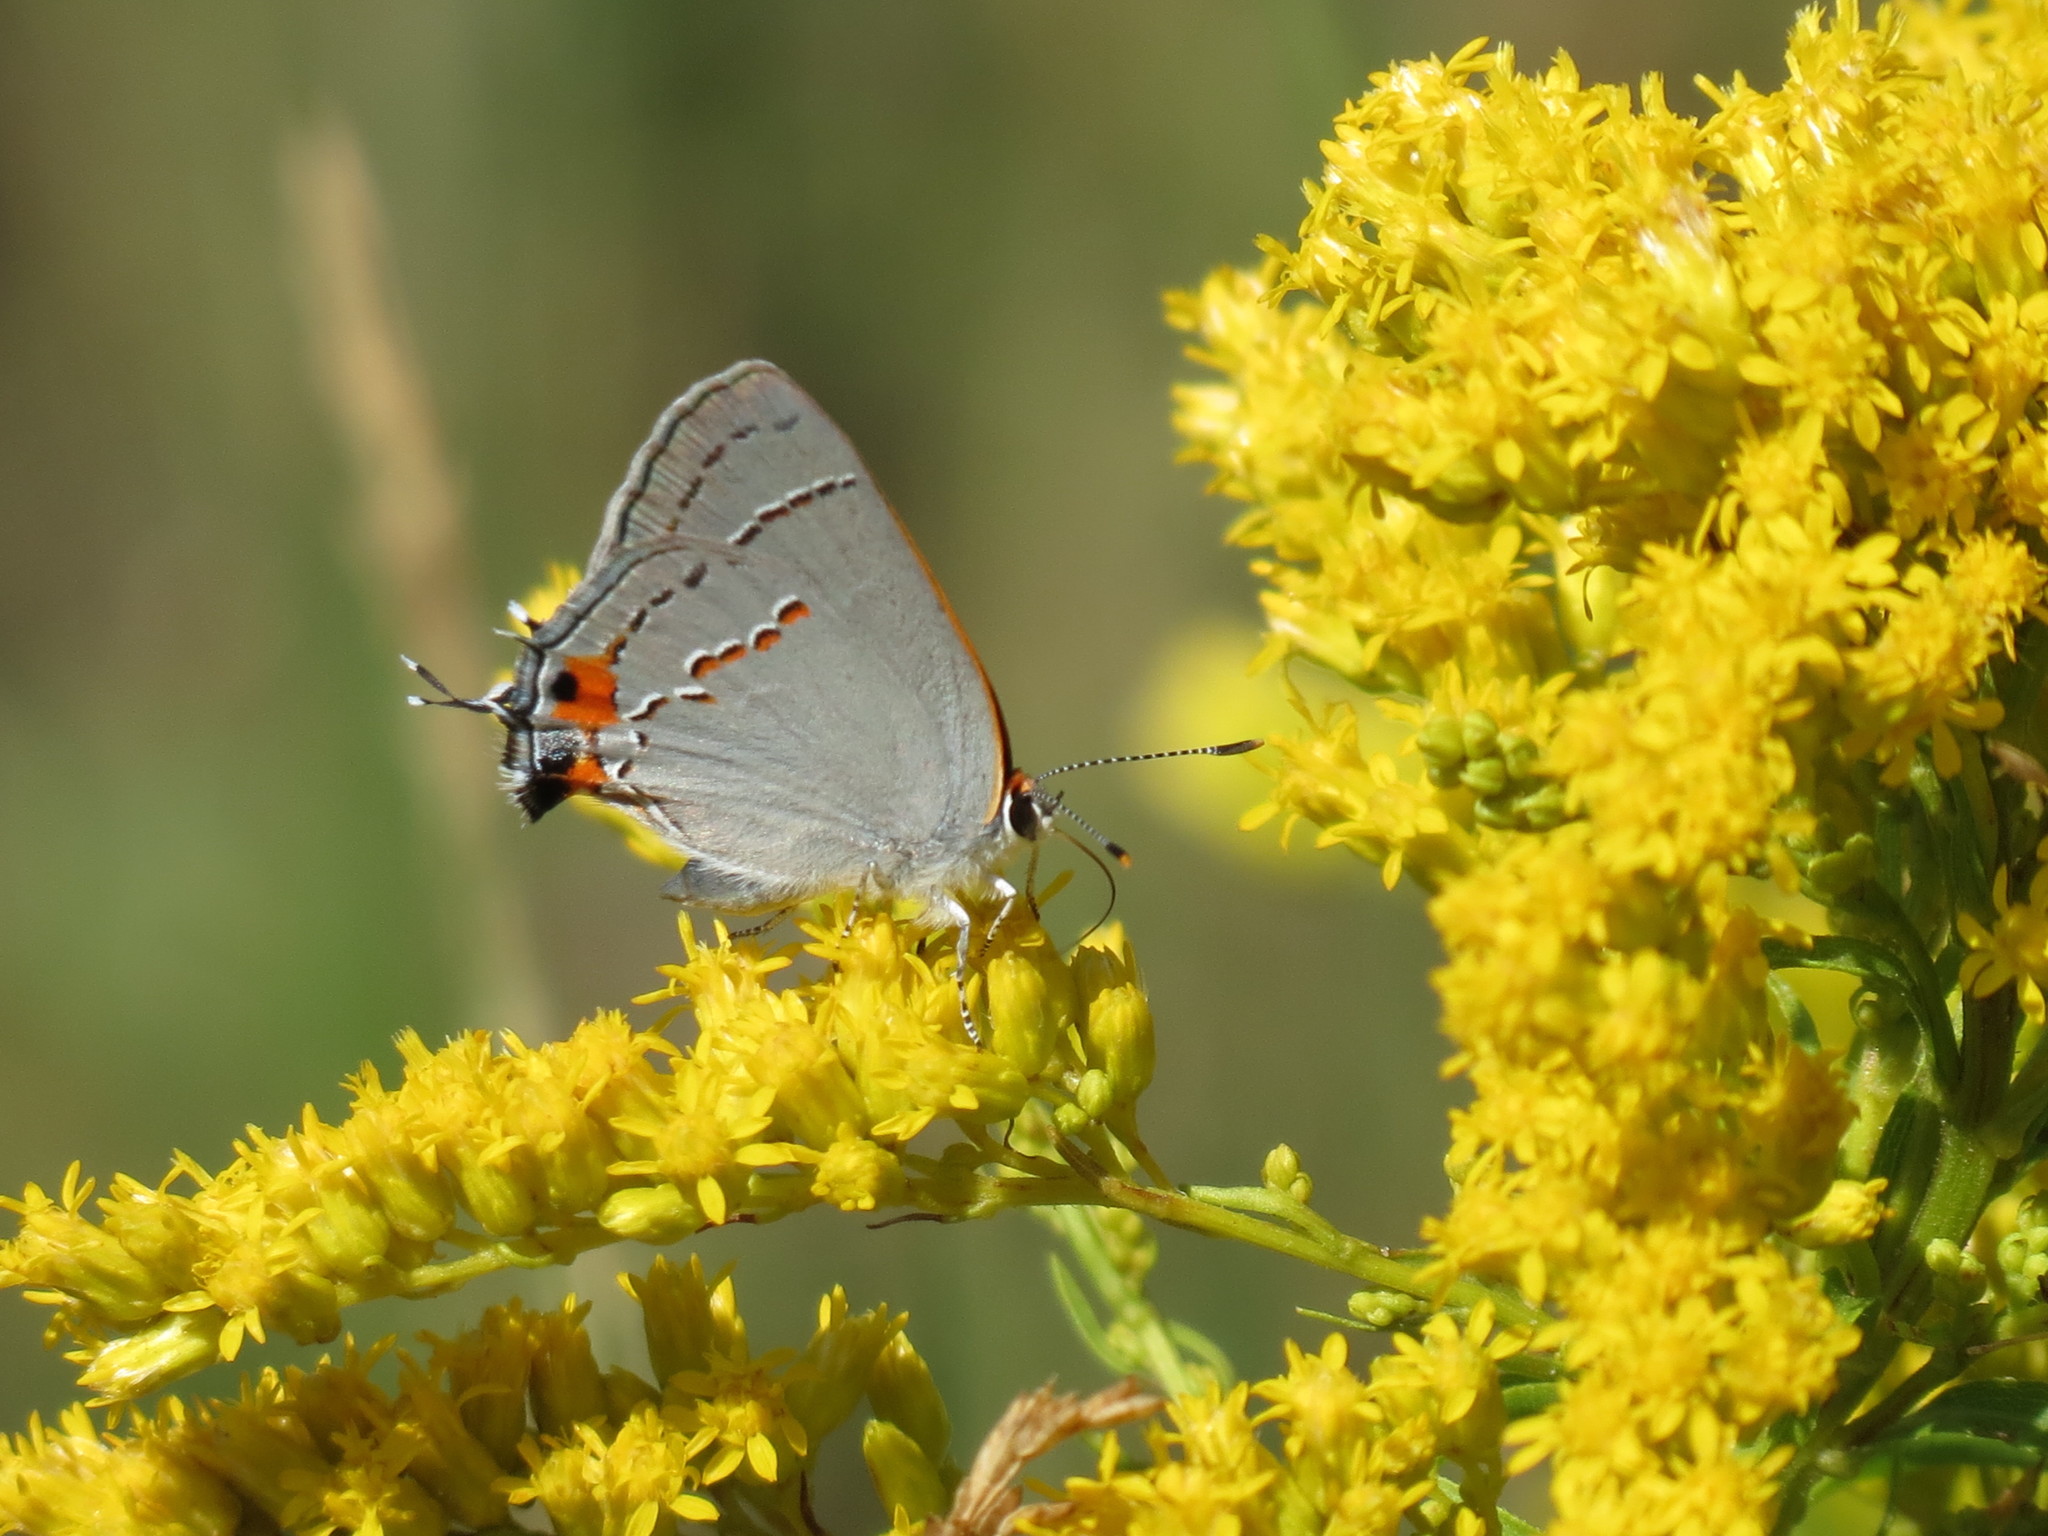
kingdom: Animalia
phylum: Arthropoda
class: Insecta
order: Lepidoptera
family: Lycaenidae
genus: Strymon
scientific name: Strymon melinus
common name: Gray hairstreak
